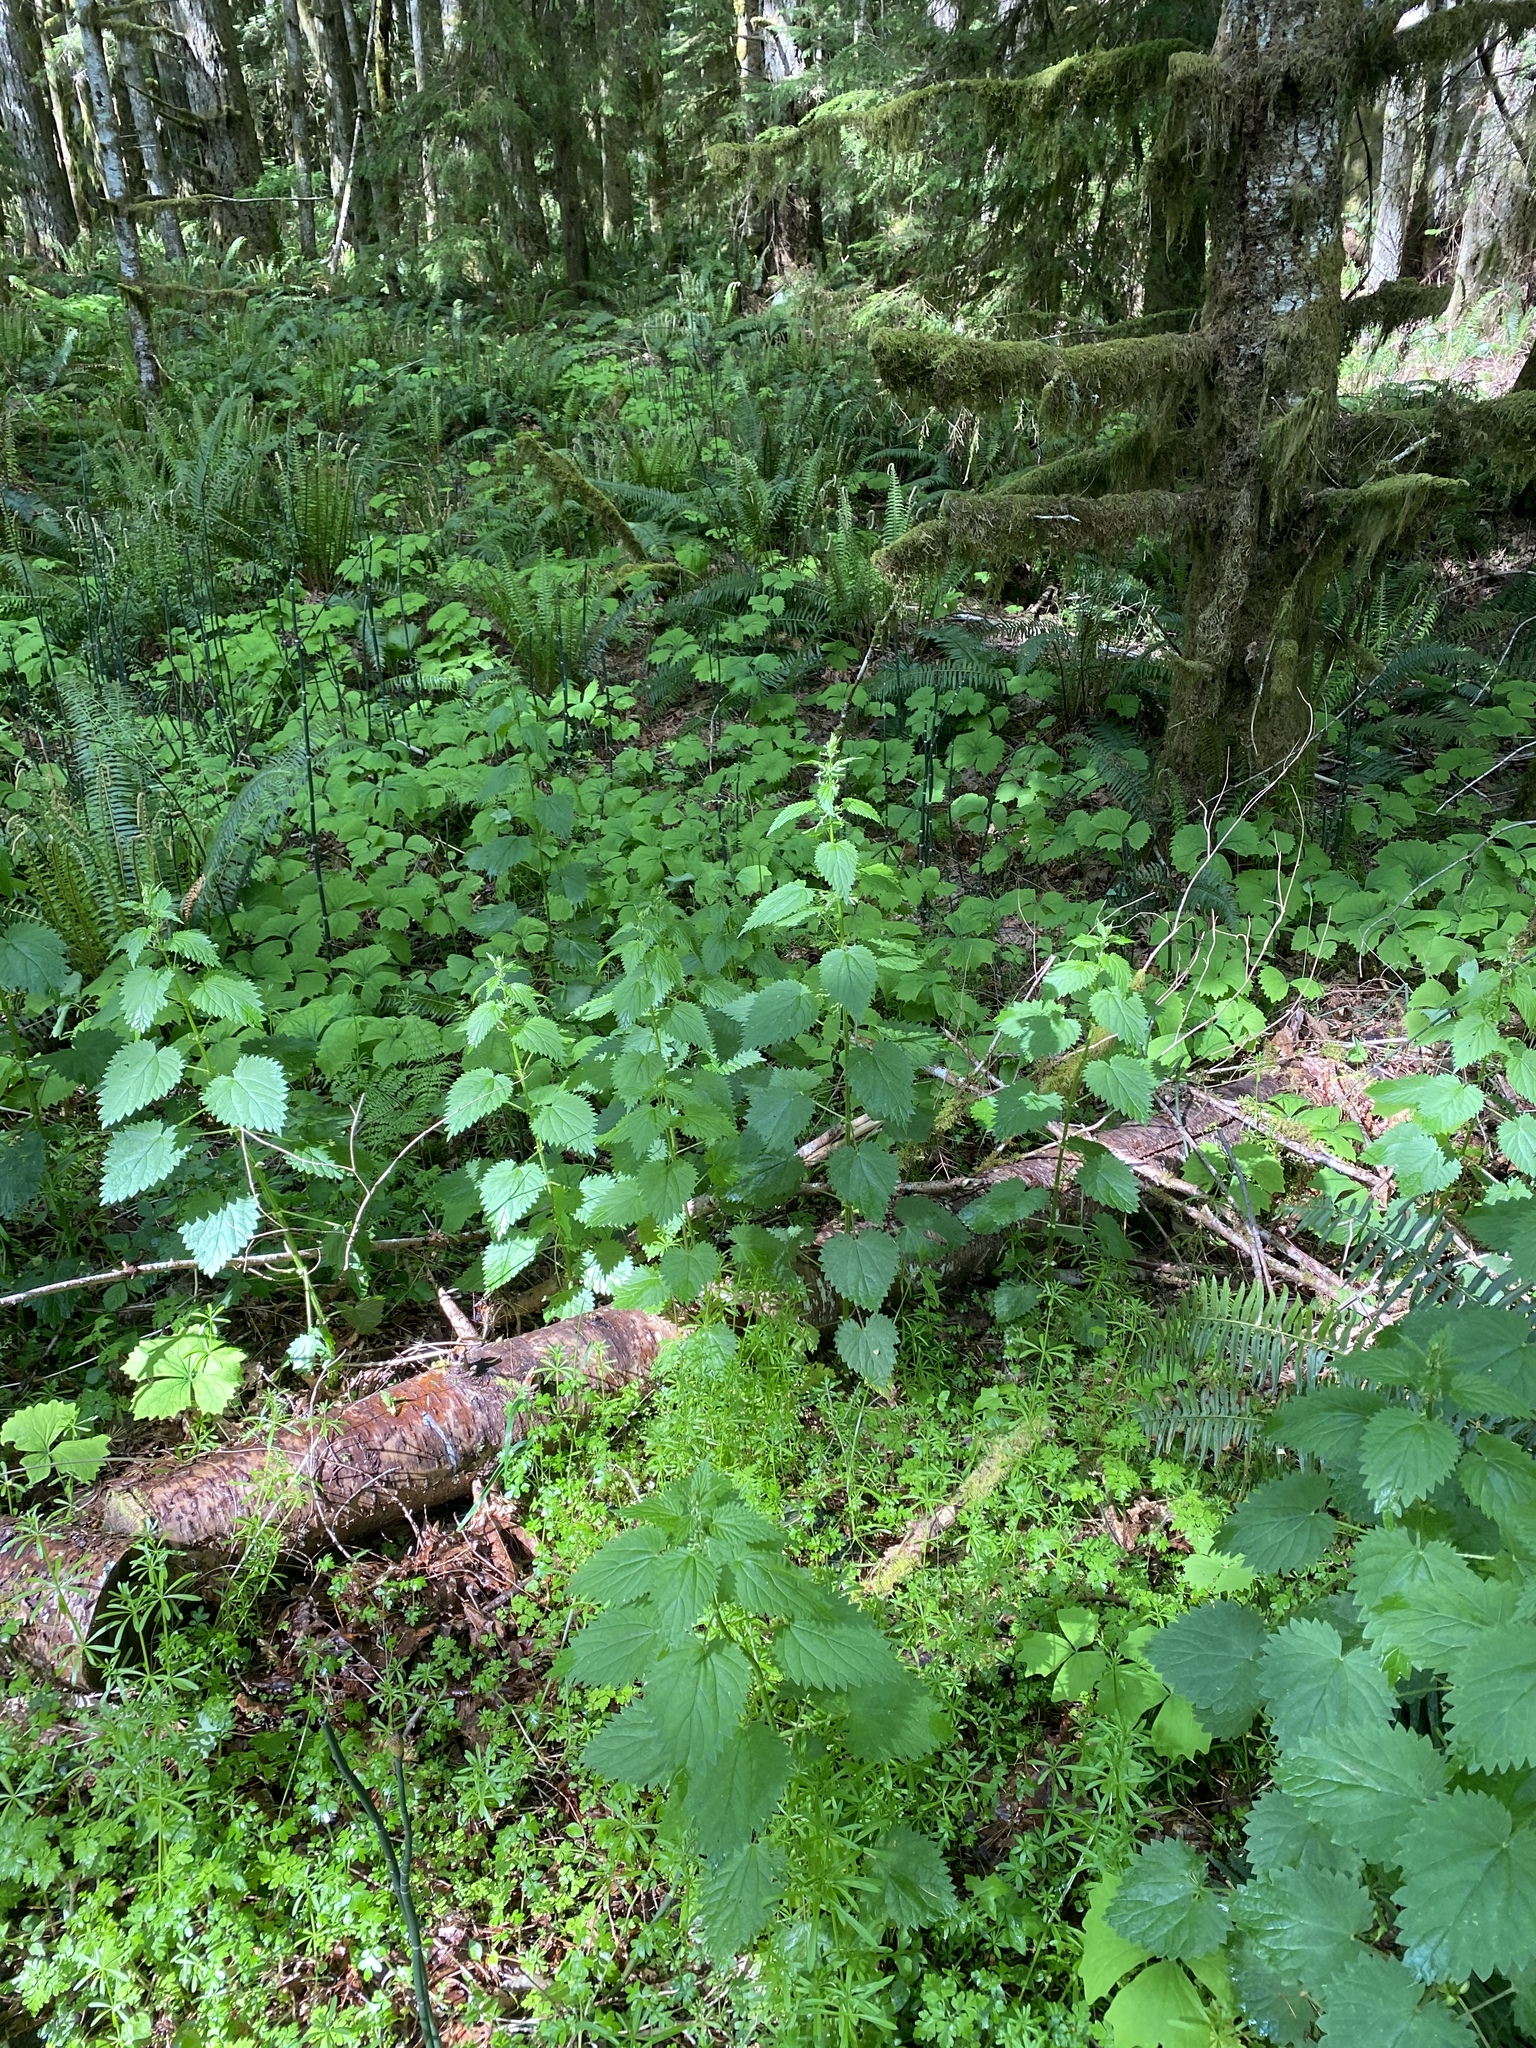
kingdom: Plantae
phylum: Tracheophyta
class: Magnoliopsida
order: Rosales
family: Urticaceae
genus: Urtica
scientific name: Urtica dioica
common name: Common nettle
